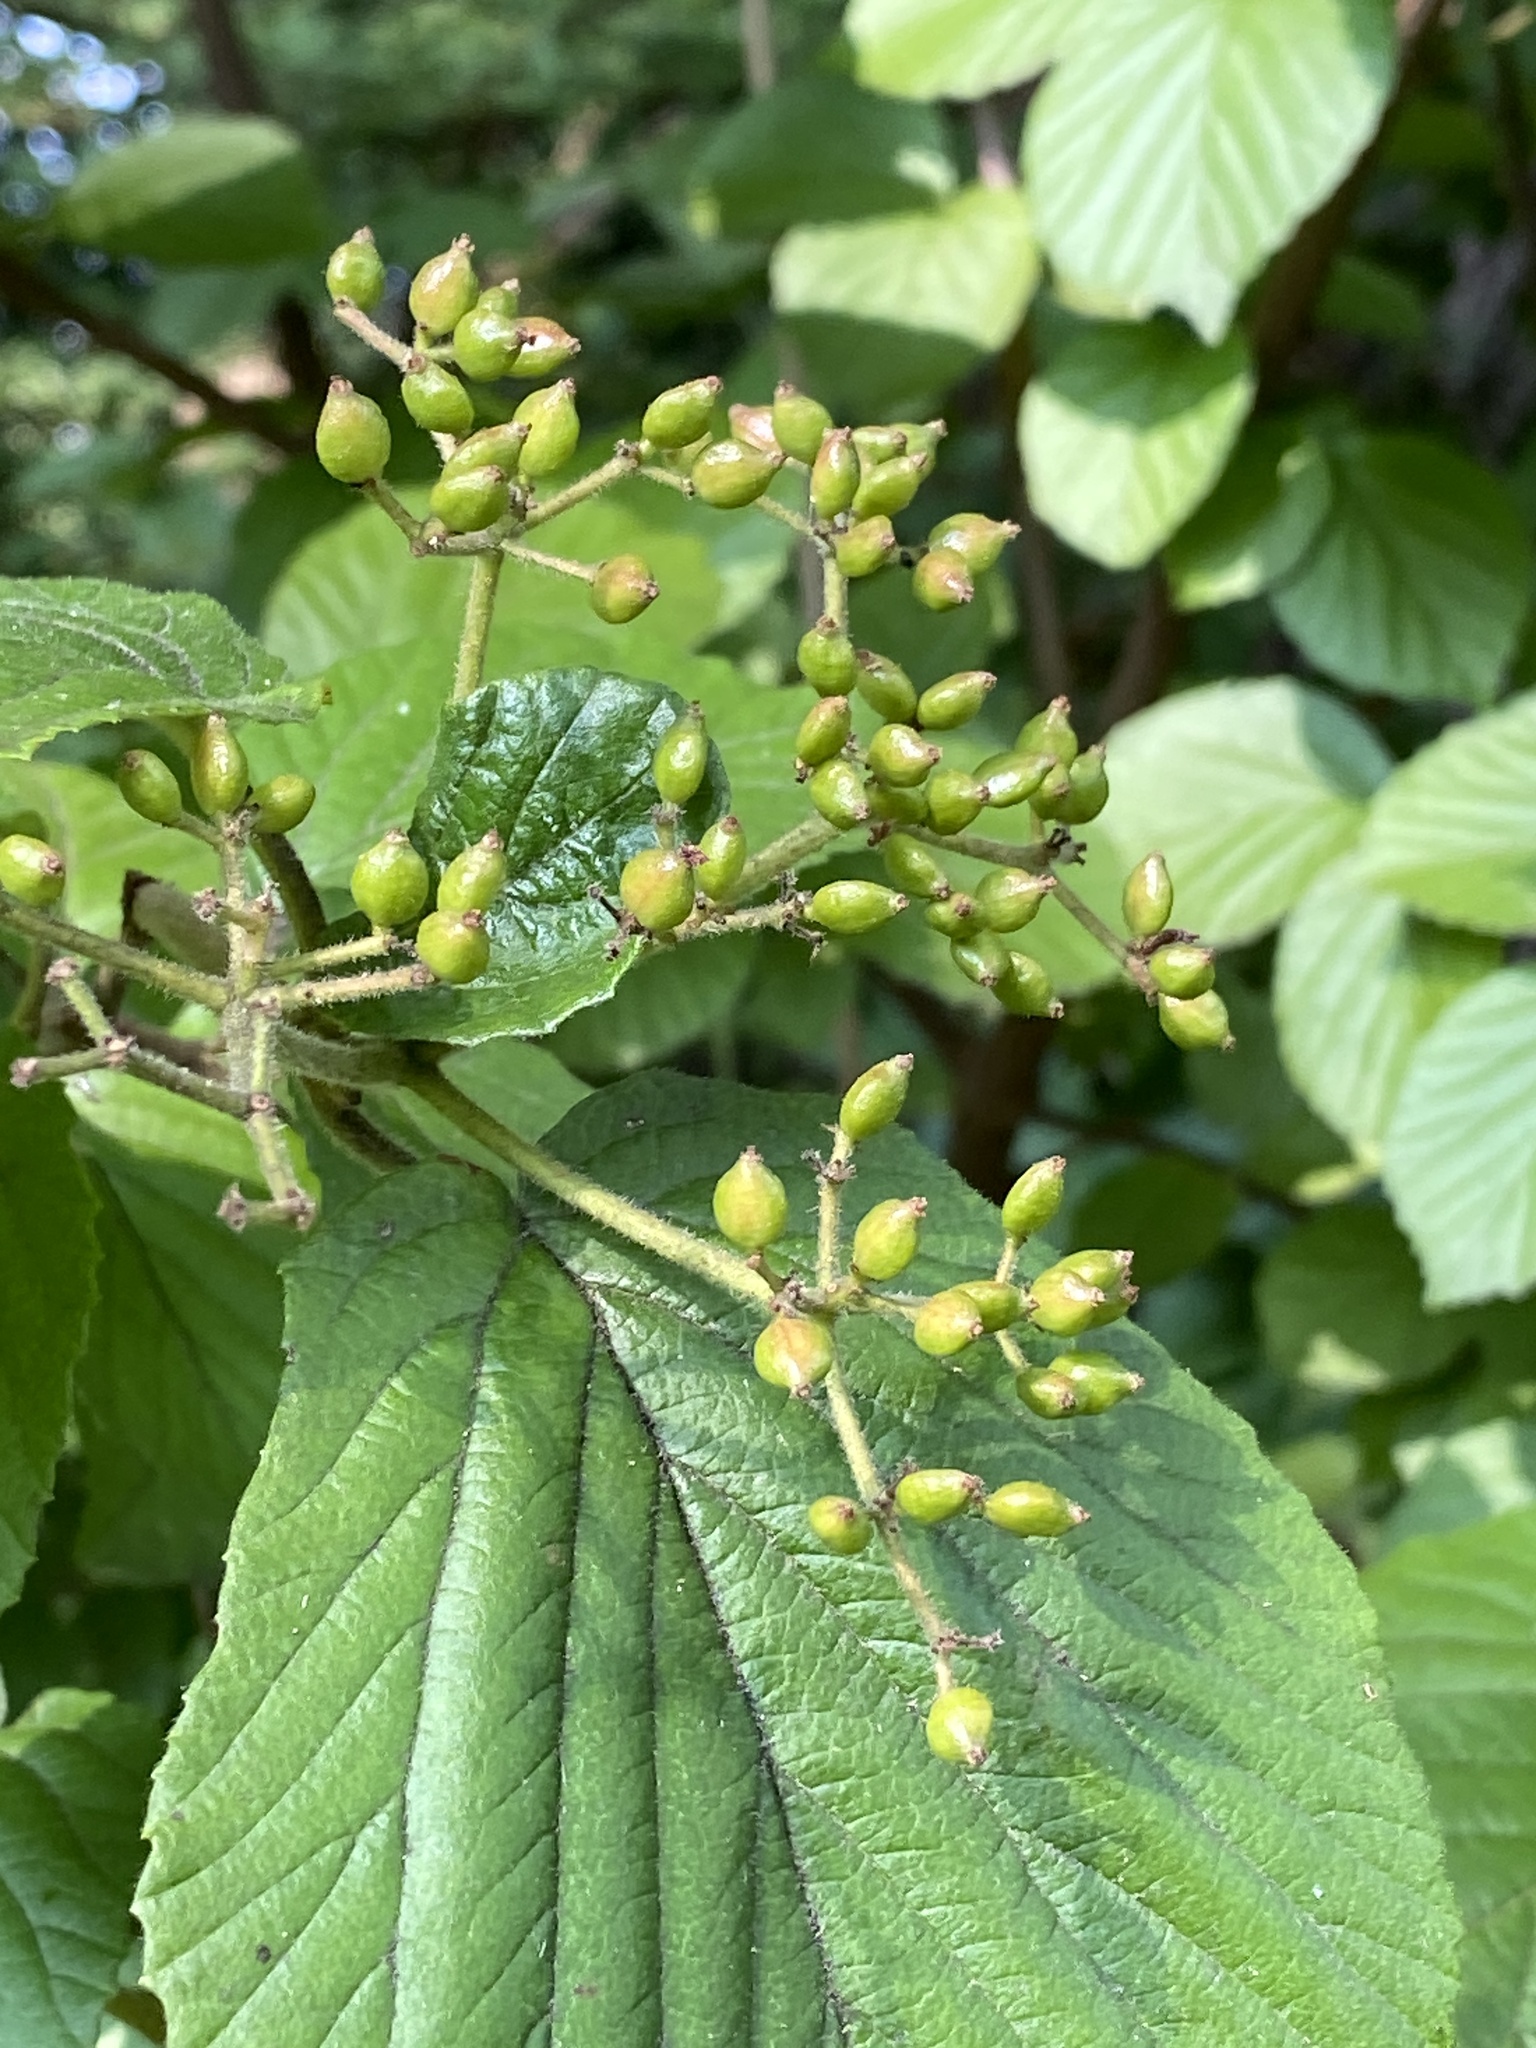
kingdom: Plantae
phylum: Tracheophyta
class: Magnoliopsida
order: Dipsacales
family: Viburnaceae
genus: Viburnum
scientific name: Viburnum dilatatum
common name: Linden arrowwood
